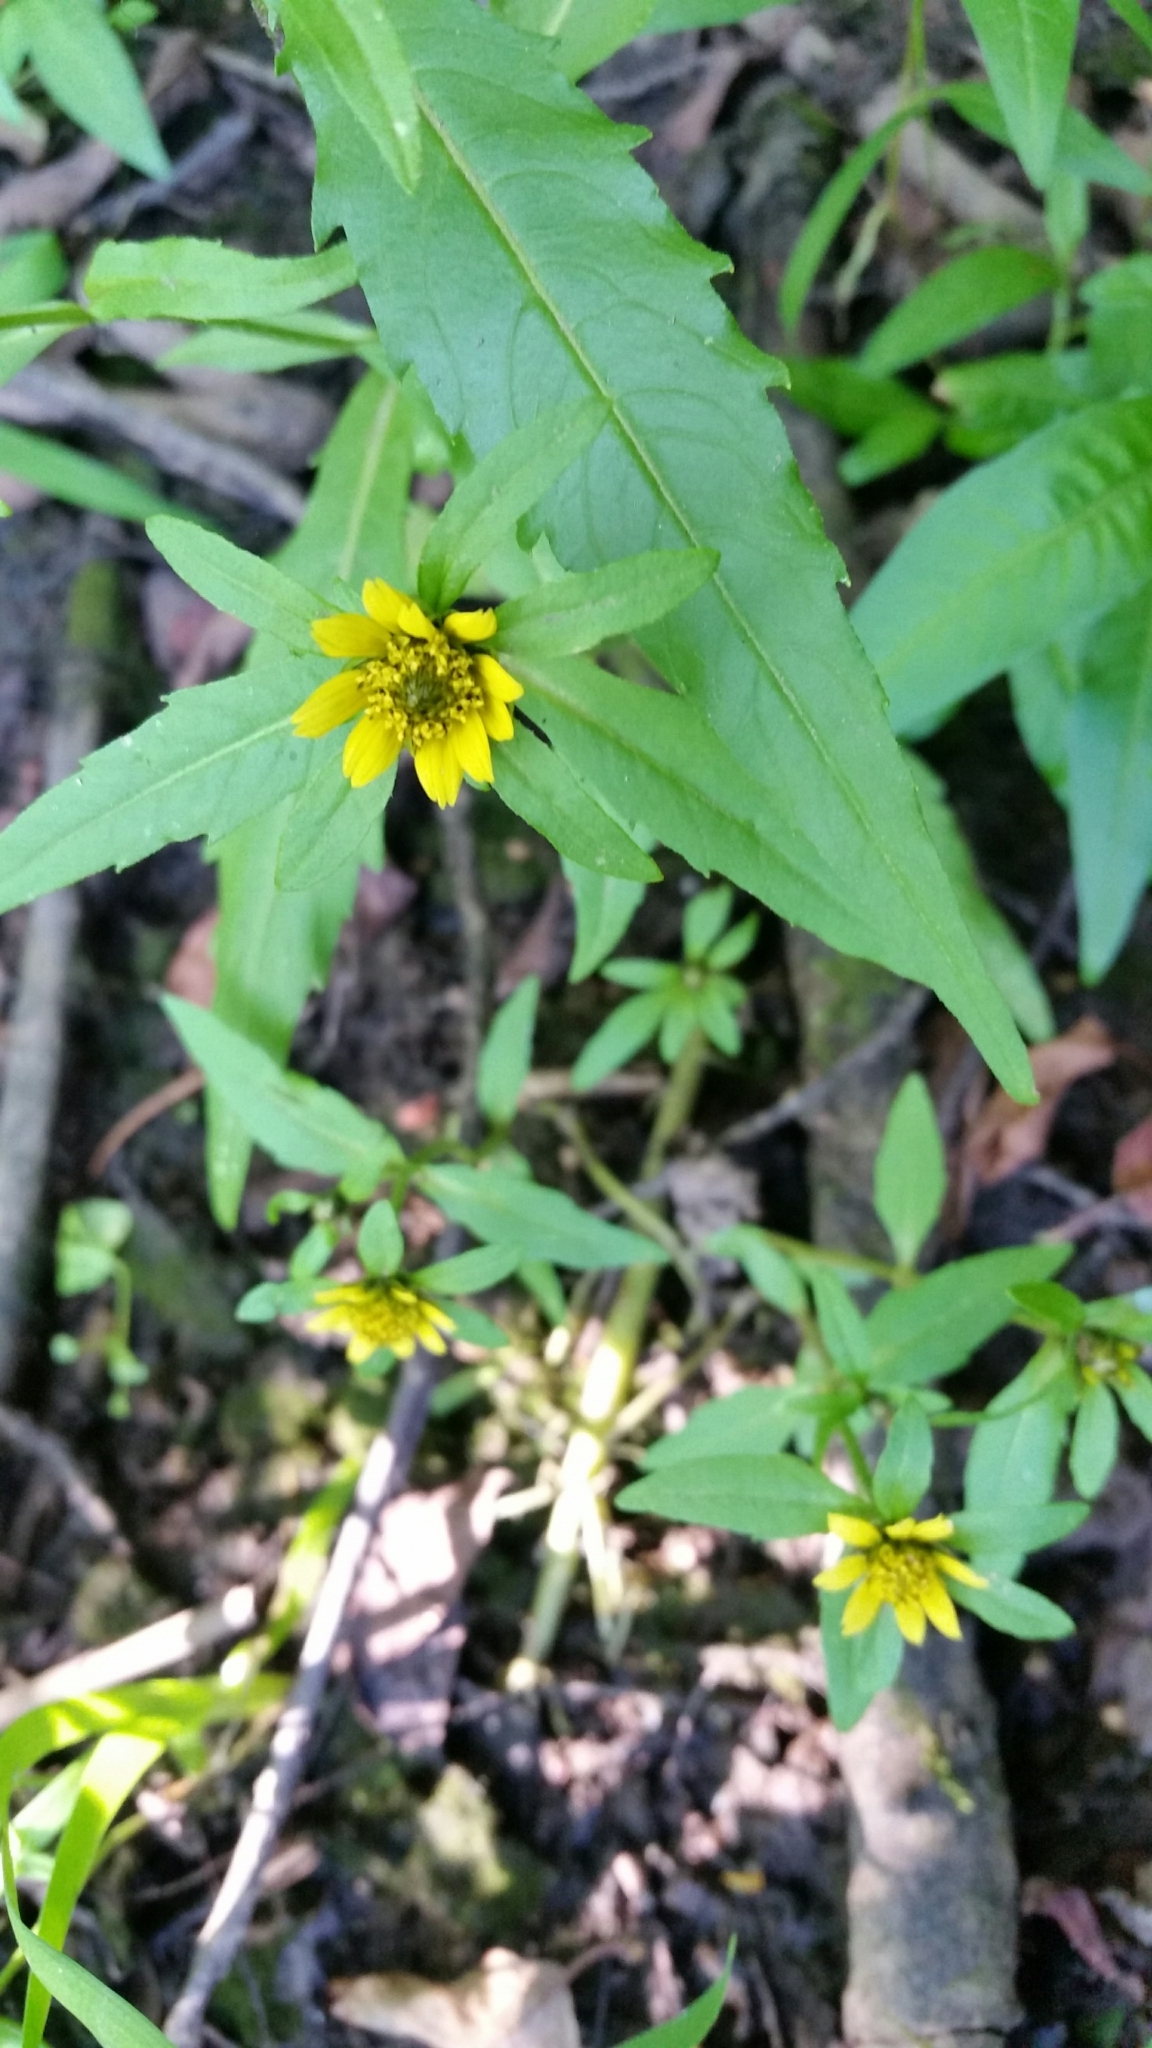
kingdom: Plantae
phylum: Tracheophyta
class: Magnoliopsida
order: Asterales
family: Asteraceae
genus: Bidens
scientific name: Bidens cernua
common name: Nodding bur-marigold
